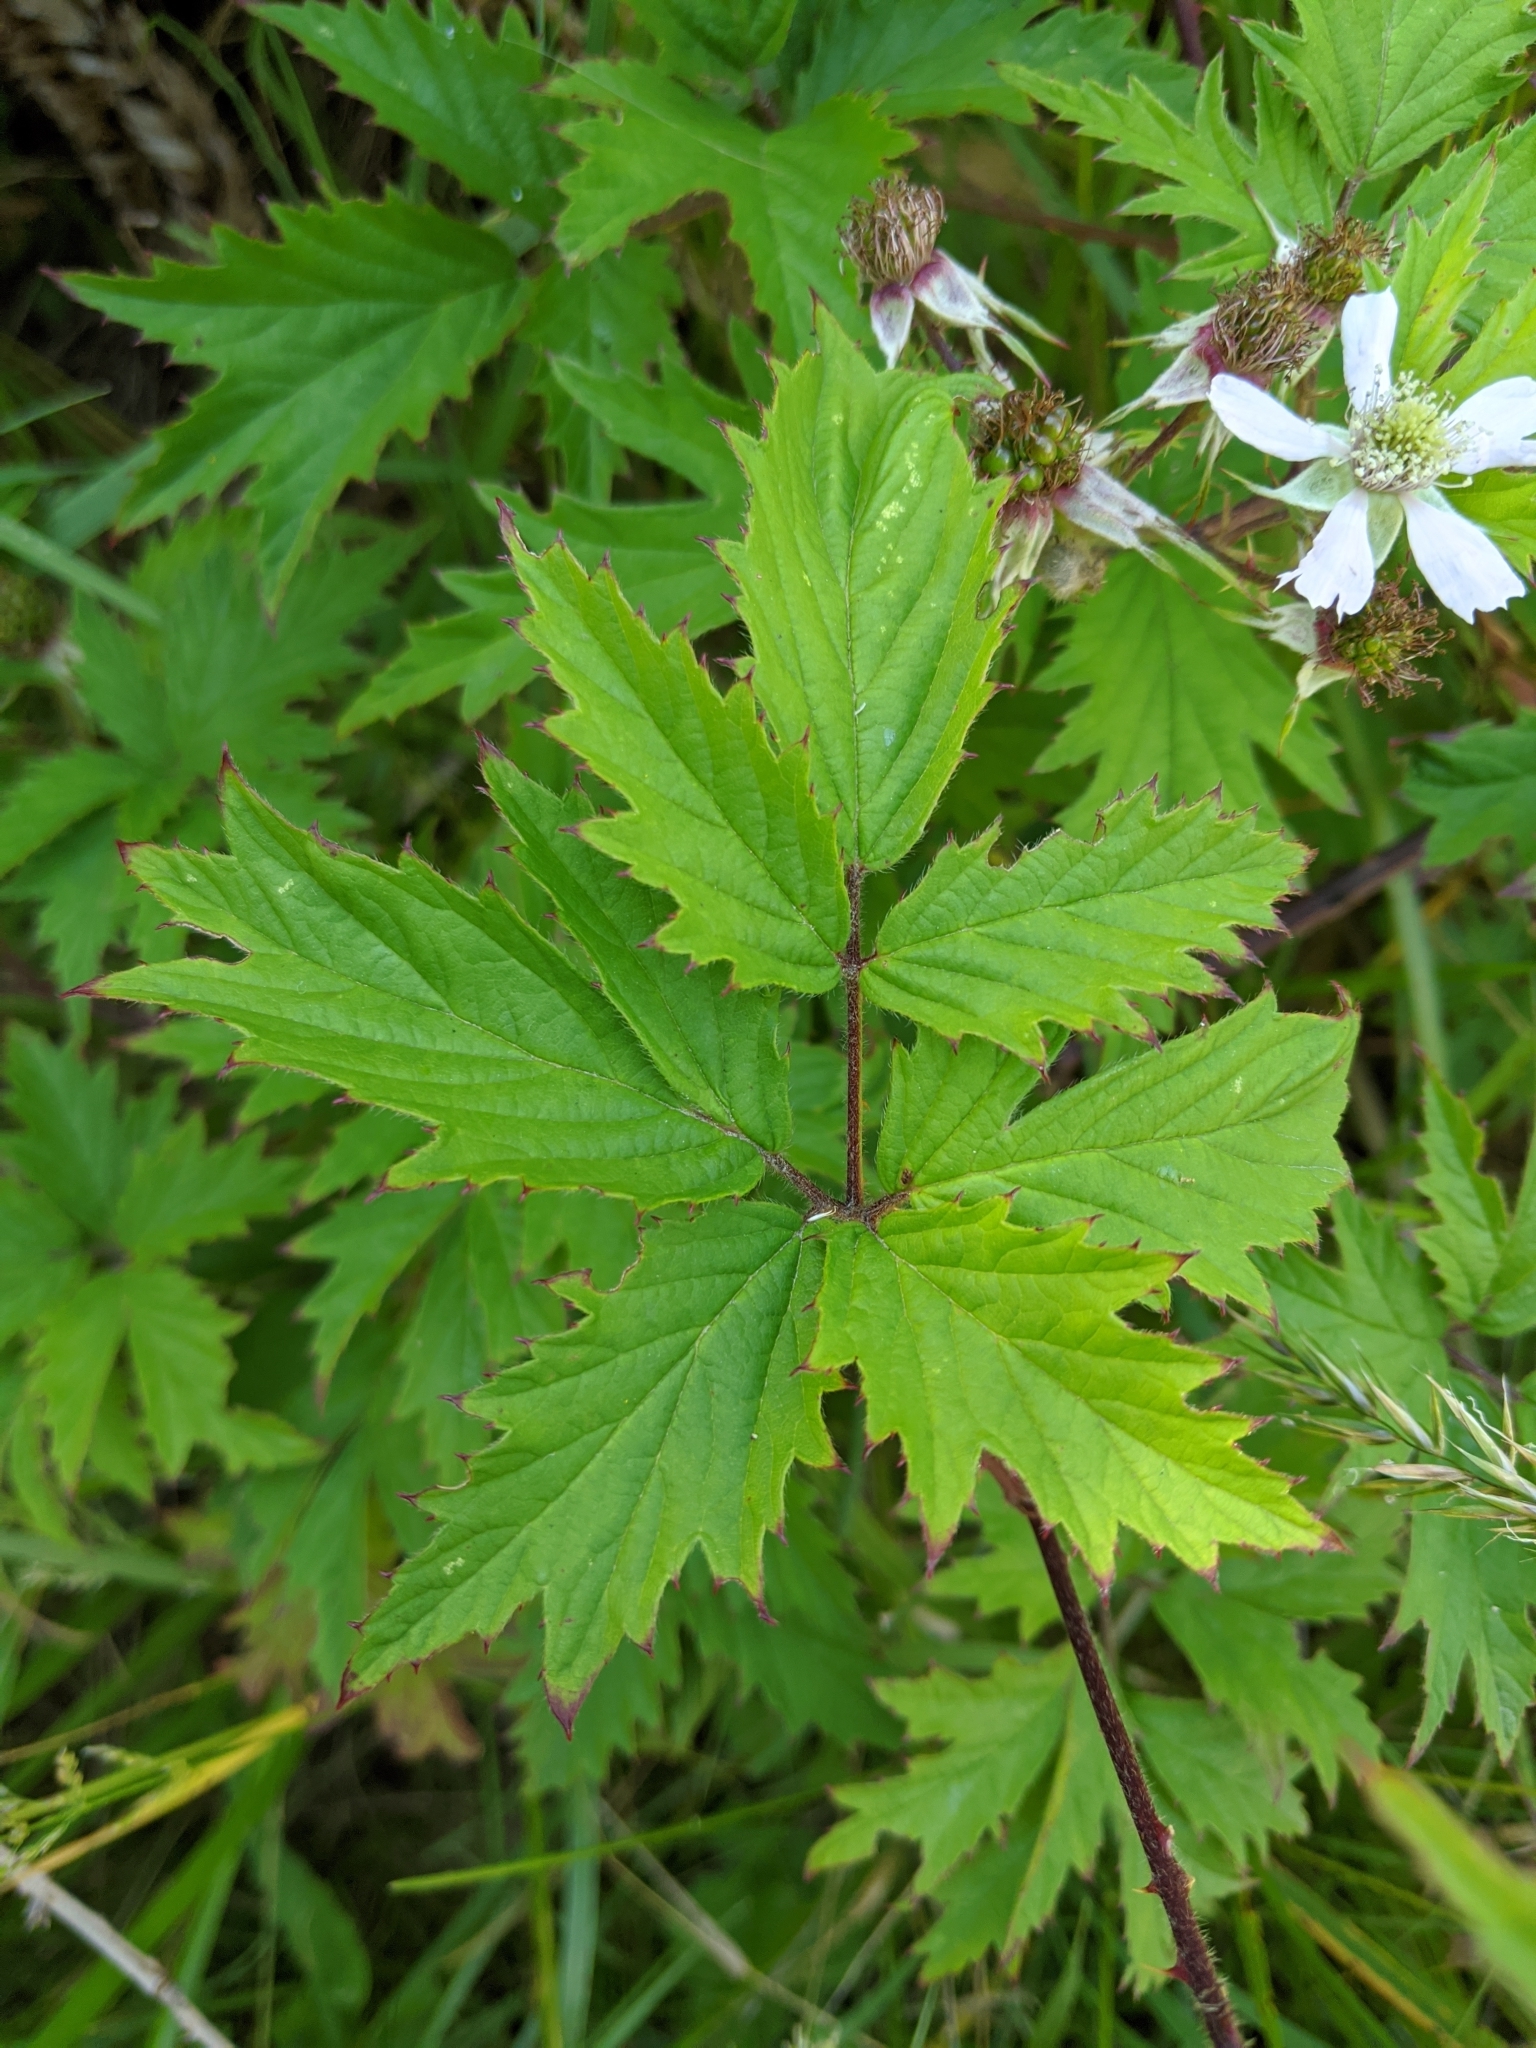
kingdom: Plantae
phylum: Tracheophyta
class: Magnoliopsida
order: Rosales
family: Rosaceae
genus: Rubus
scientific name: Rubus laciniatus
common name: Evergreen blackberry
